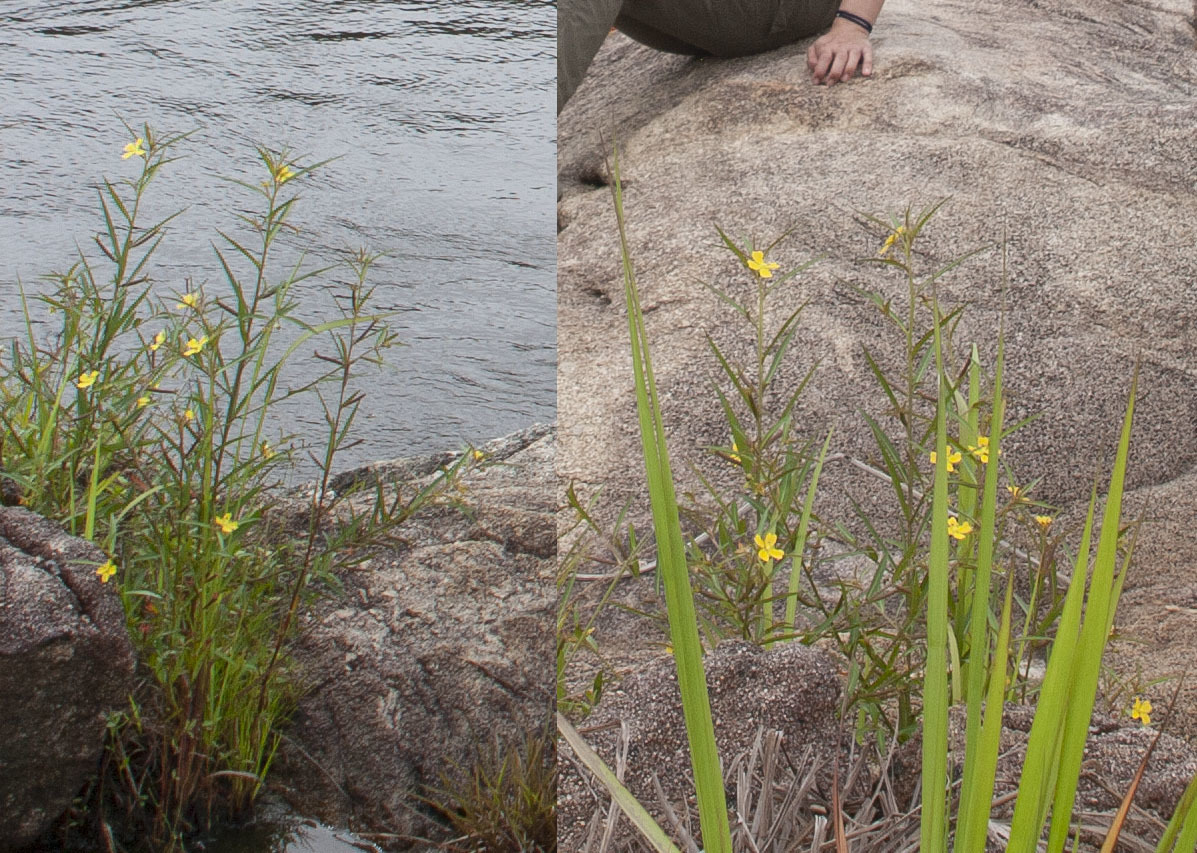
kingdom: Plantae
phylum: Tracheophyta
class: Magnoliopsida
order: Myrtales
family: Onagraceae
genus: Ludwigia
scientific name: Ludwigia decurrens
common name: Winged water-primrose
